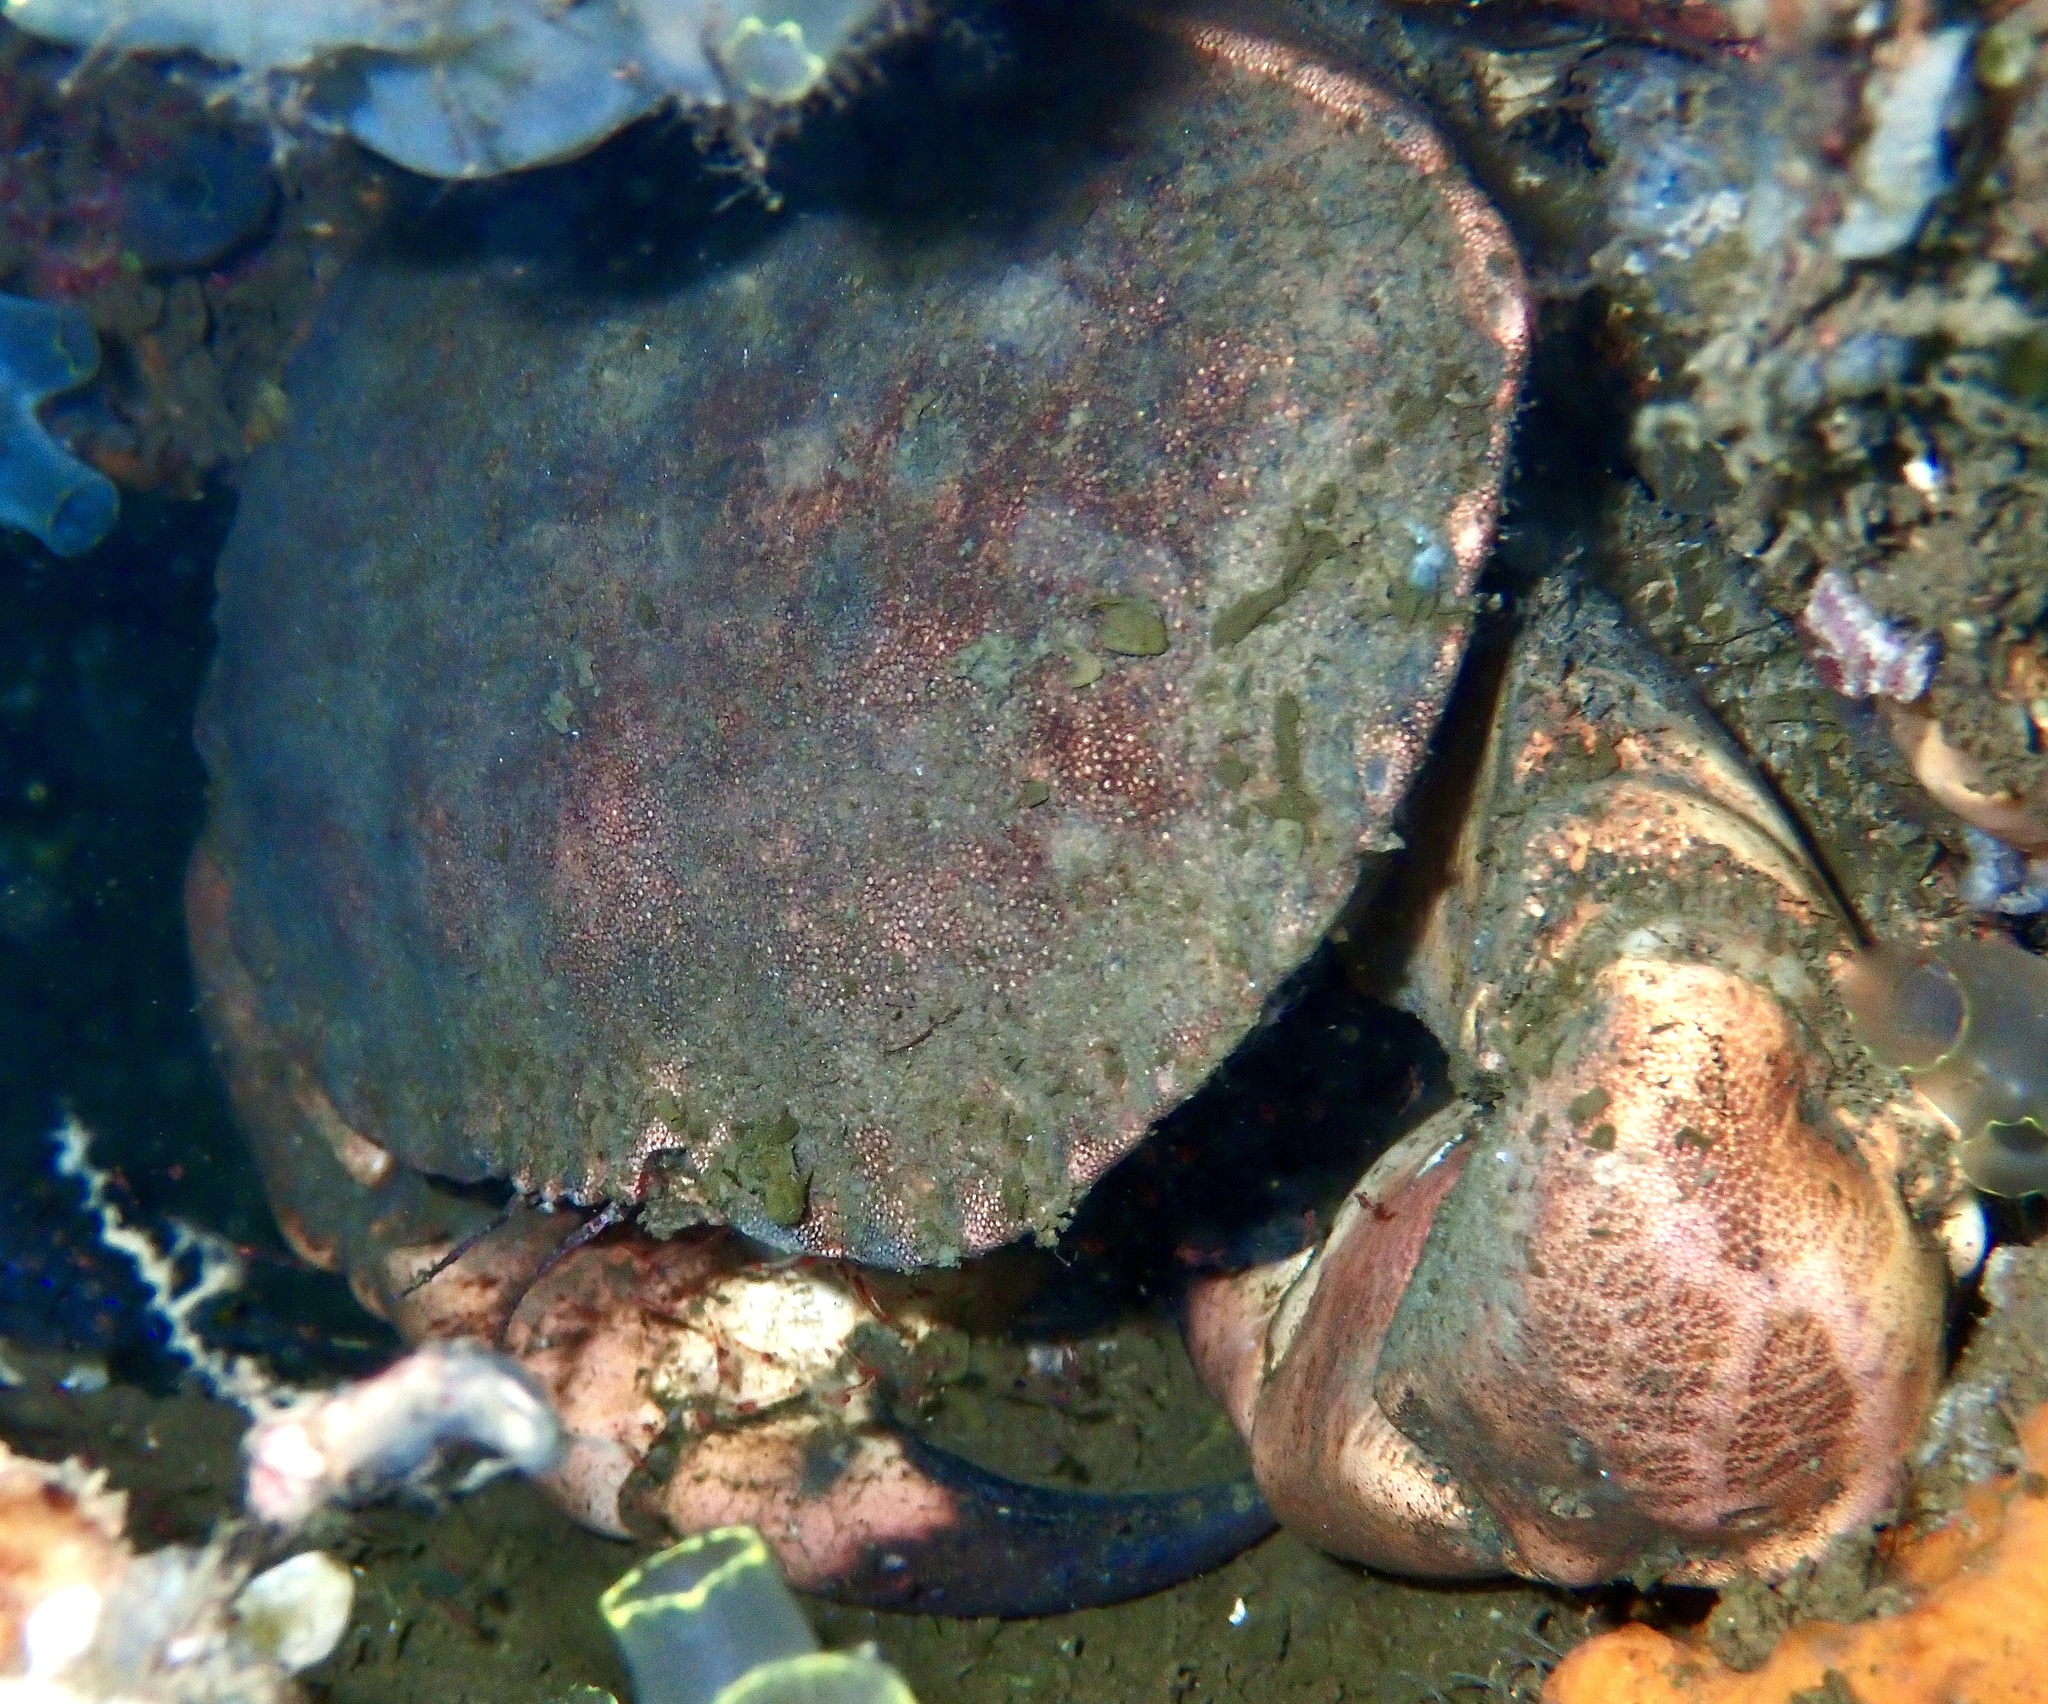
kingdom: Animalia
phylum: Arthropoda
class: Malacostraca
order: Decapoda
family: Cancridae
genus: Cancer
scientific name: Cancer pagurus
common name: Edible crab
